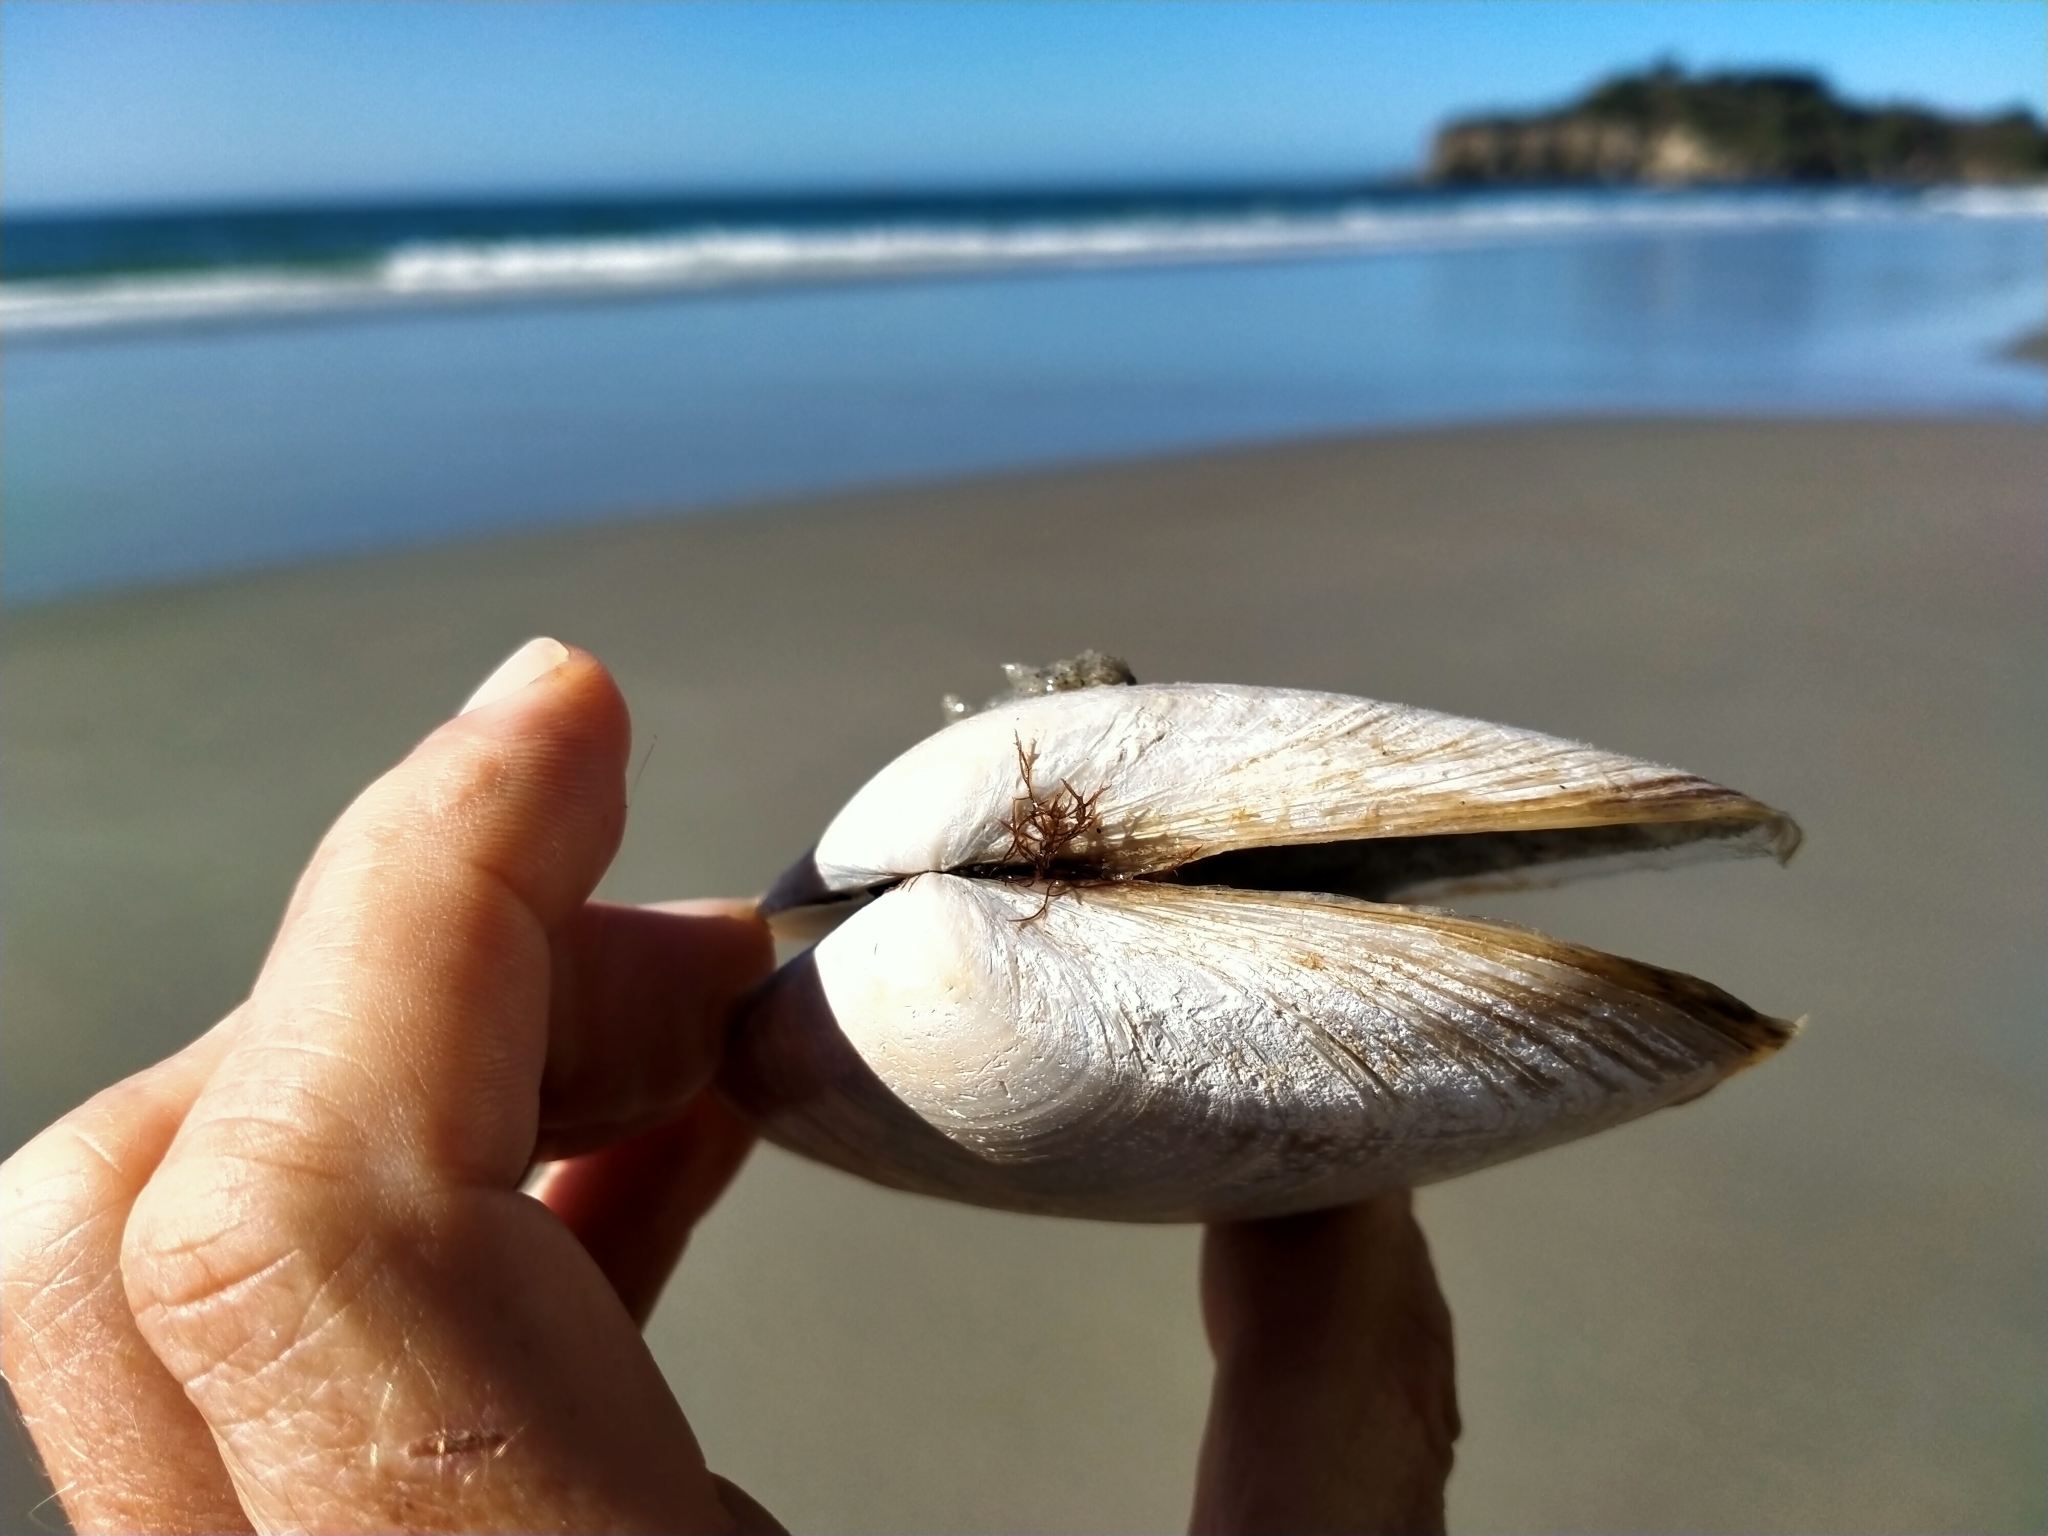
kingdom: Animalia
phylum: Mollusca
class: Bivalvia
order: Venerida
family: Mesodesmatidae
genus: Paphies
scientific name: Paphies donacina
